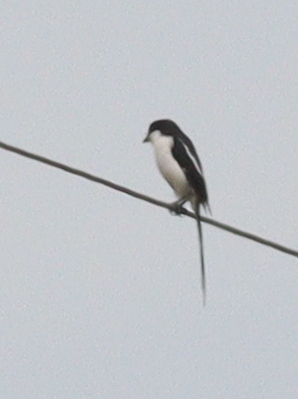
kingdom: Animalia
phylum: Chordata
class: Aves
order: Passeriformes
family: Laniidae
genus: Lanius
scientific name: Lanius humeralis
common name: Northern fiscal
